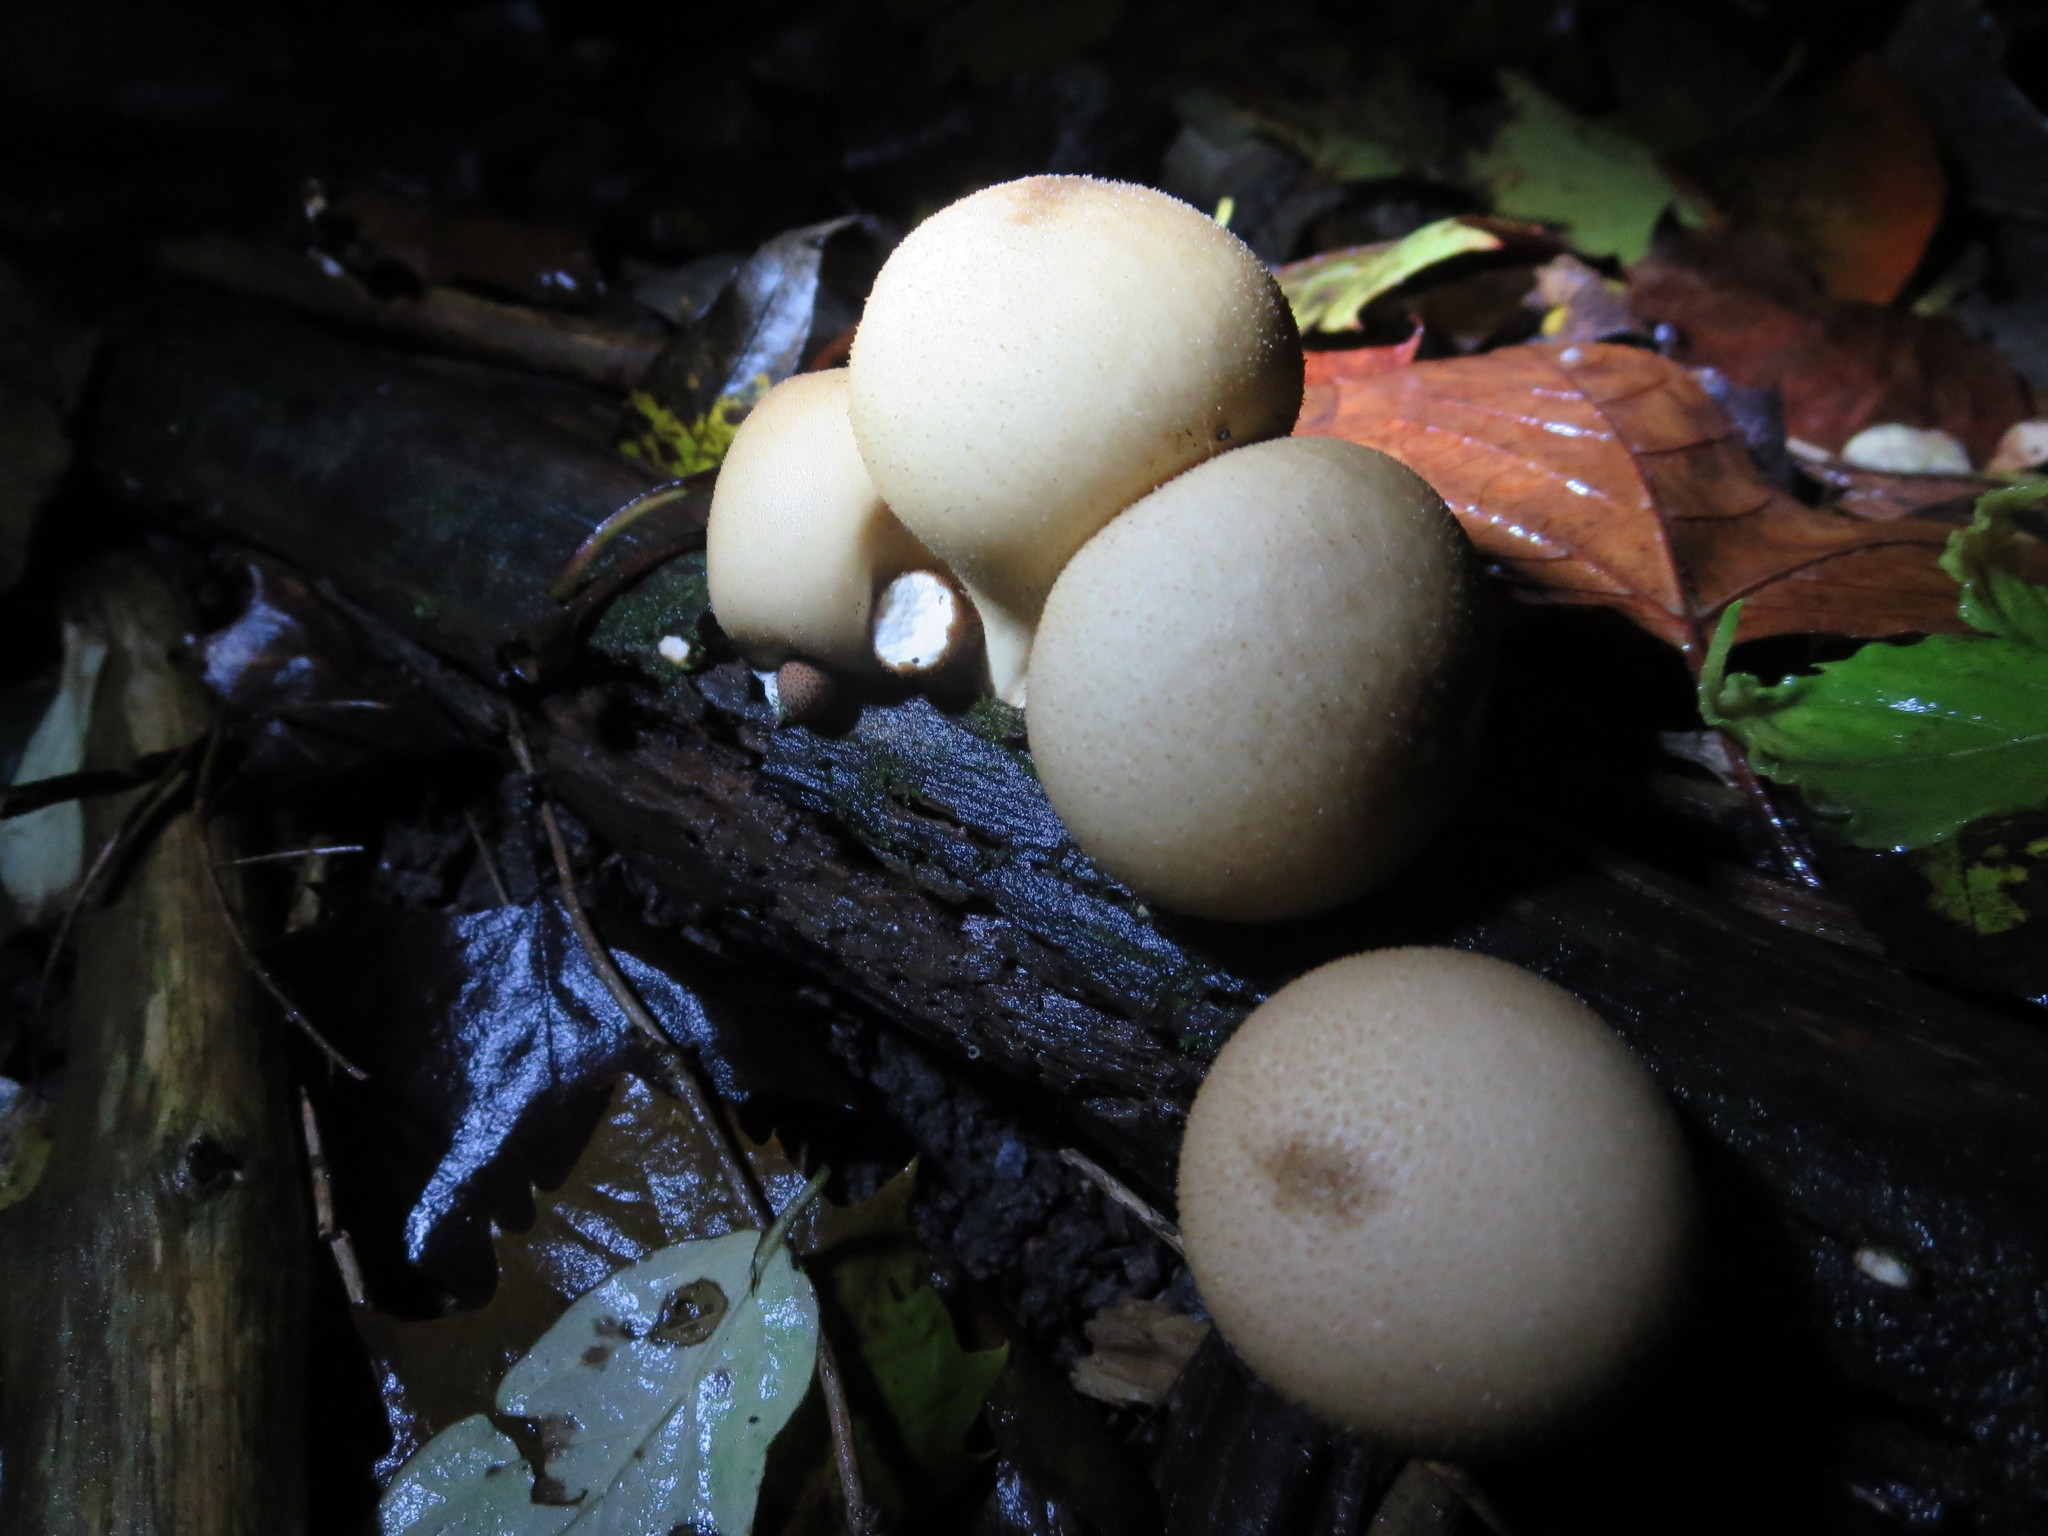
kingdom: Fungi
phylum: Basidiomycota
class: Agaricomycetes
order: Agaricales
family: Lycoperdaceae
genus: Apioperdon
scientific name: Apioperdon pyriforme
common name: Pear-shaped puffball
